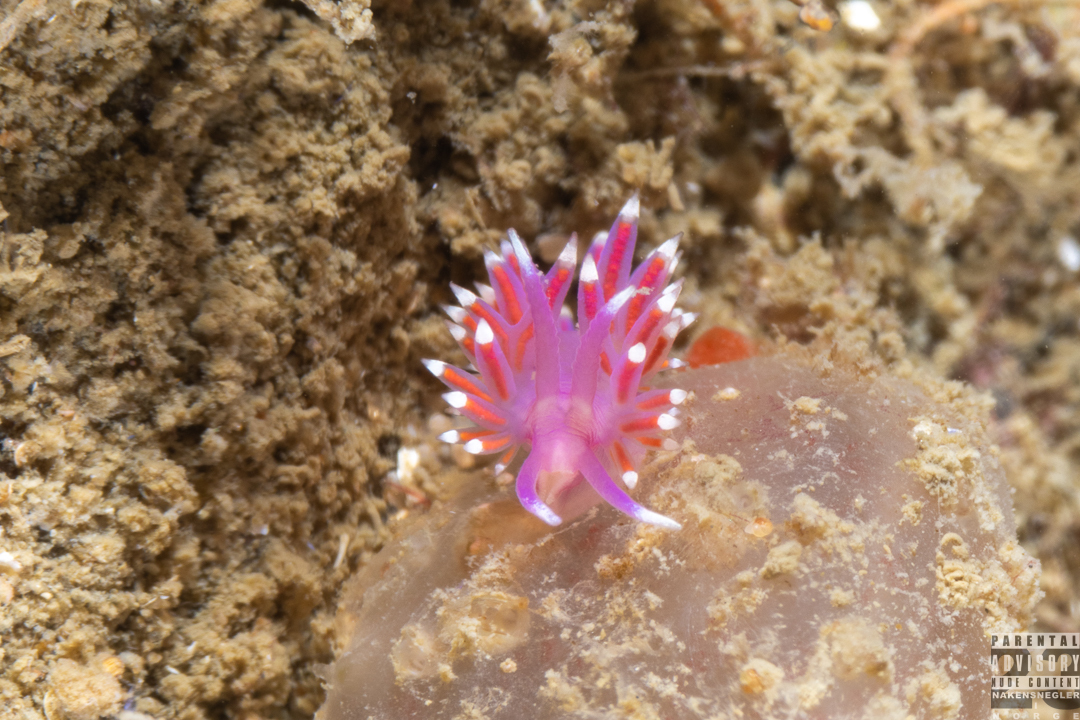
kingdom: Animalia
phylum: Mollusca
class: Gastropoda
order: Nudibranchia
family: Flabellinidae
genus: Edmundsella
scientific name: Edmundsella pedata
